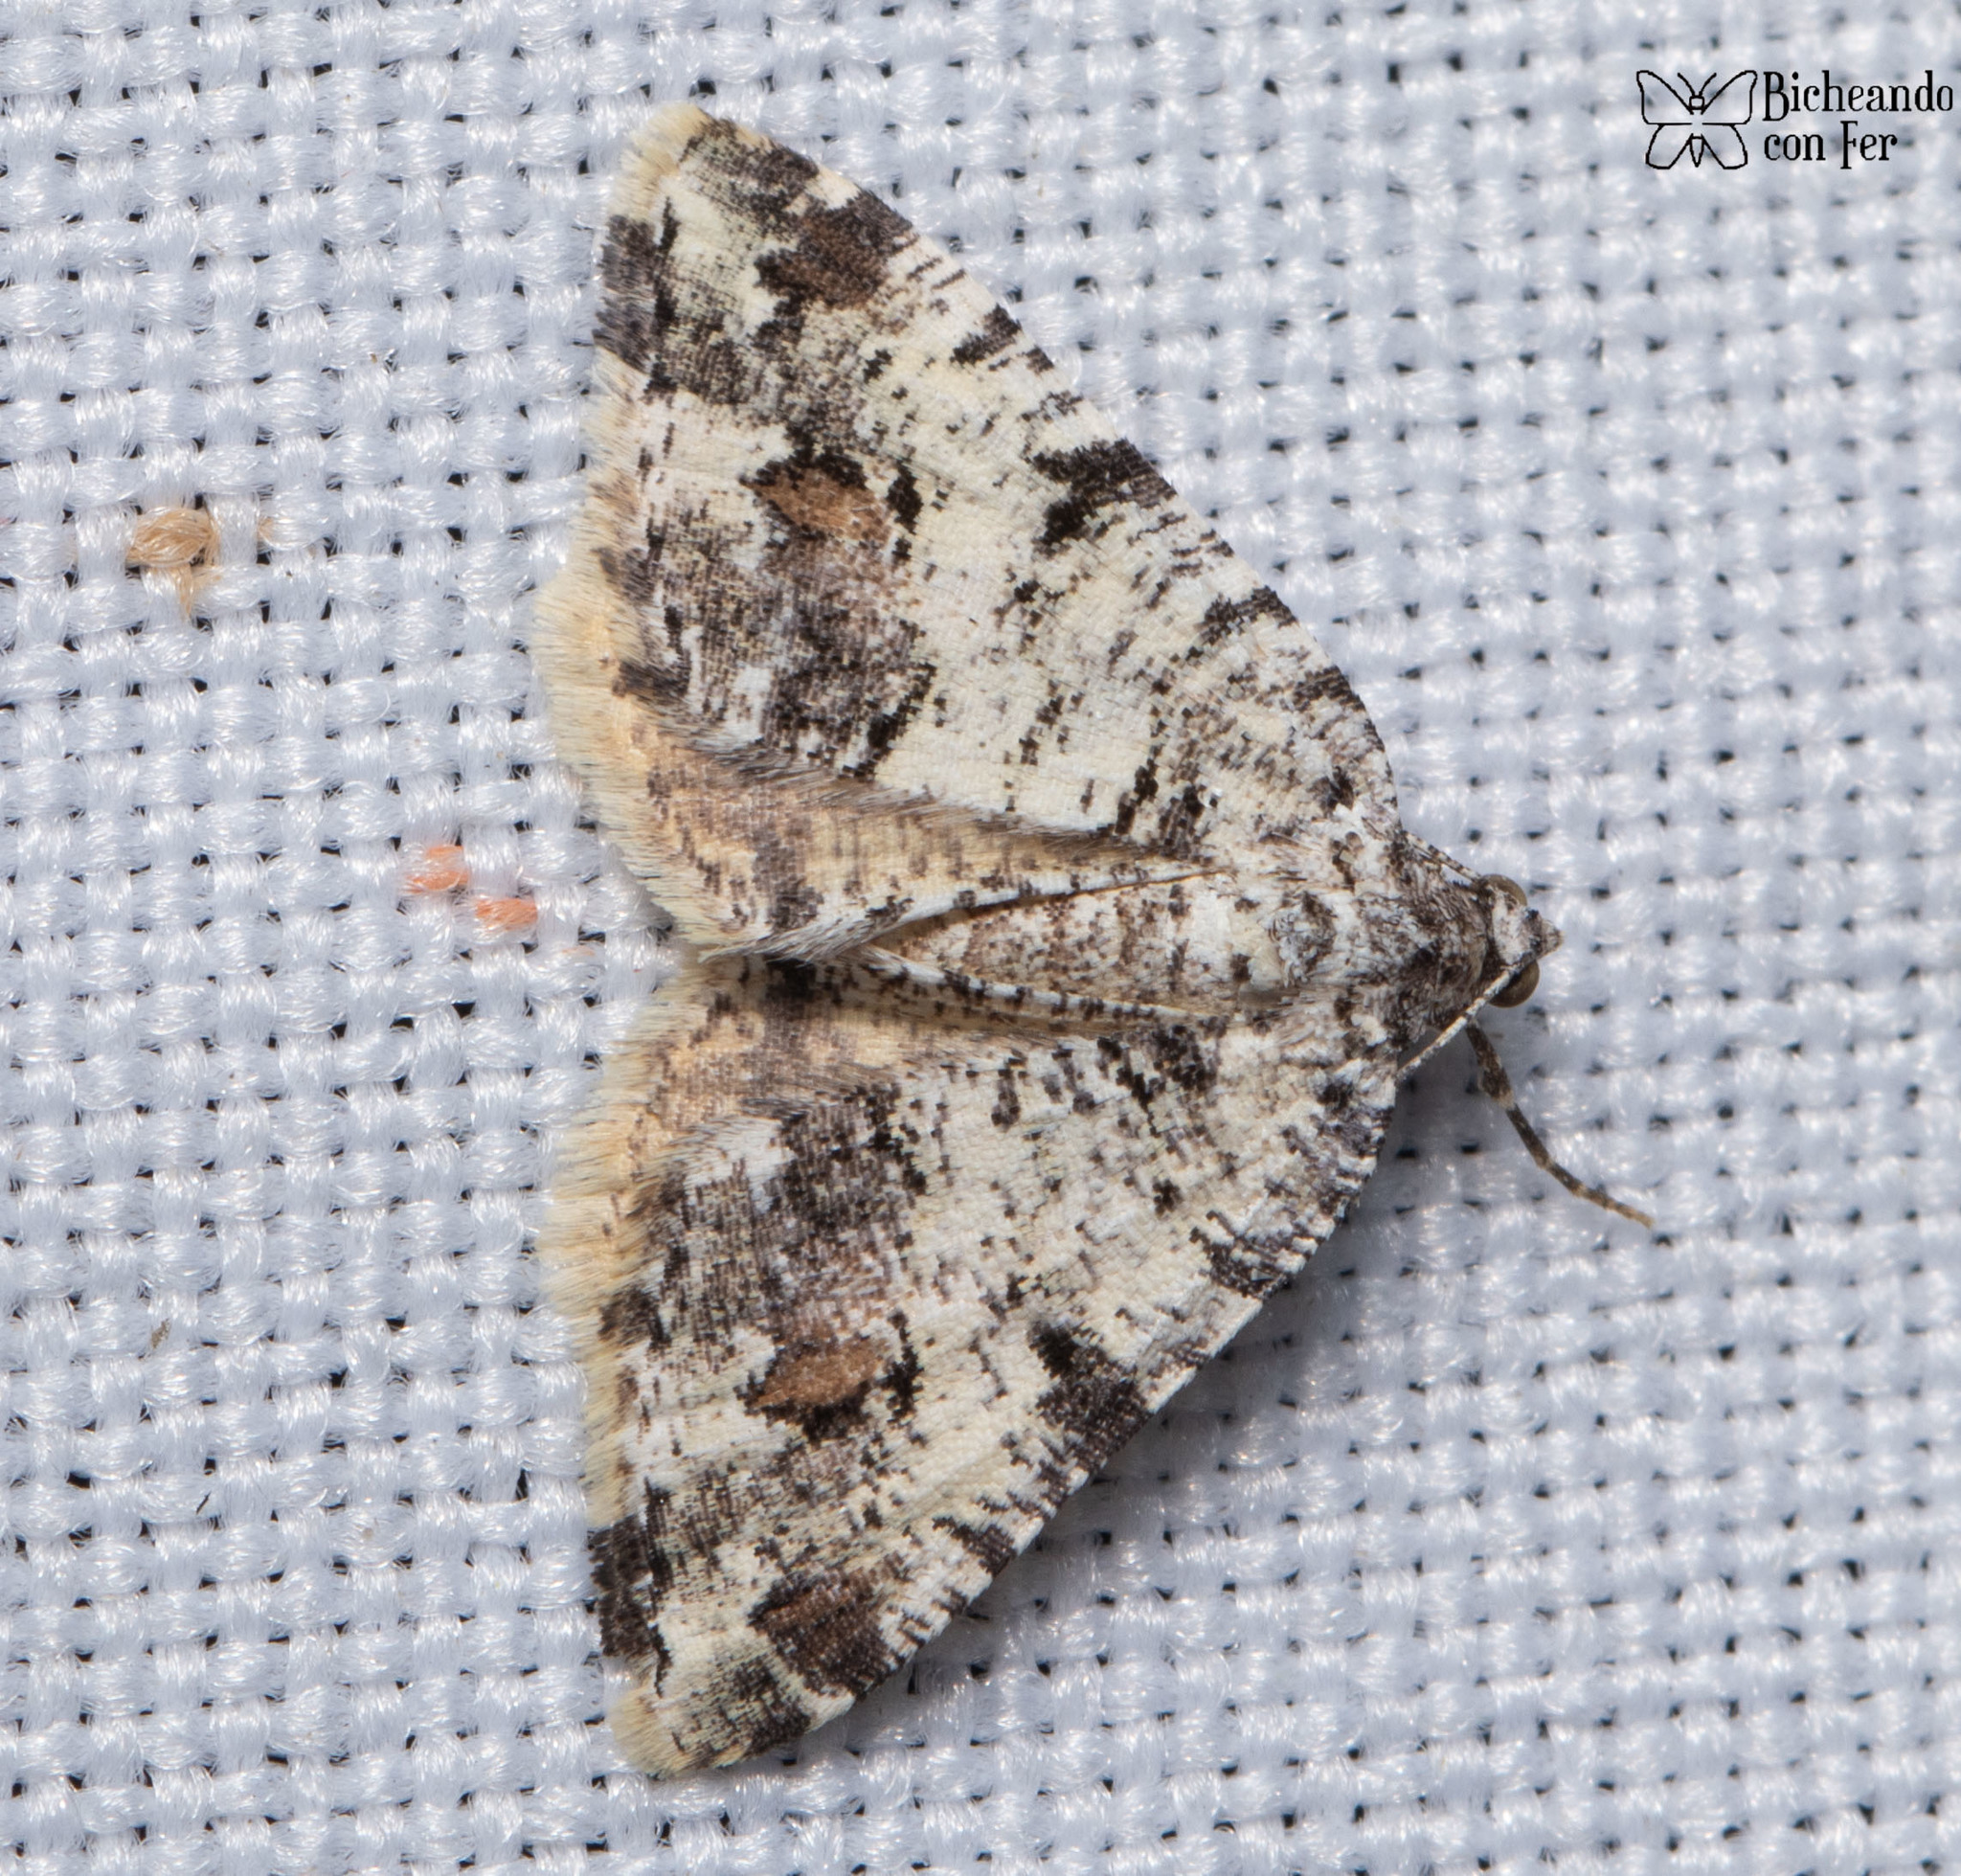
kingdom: Animalia
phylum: Arthropoda
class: Insecta
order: Lepidoptera
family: Geometridae
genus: Macaria
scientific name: Macaria graphidaria
